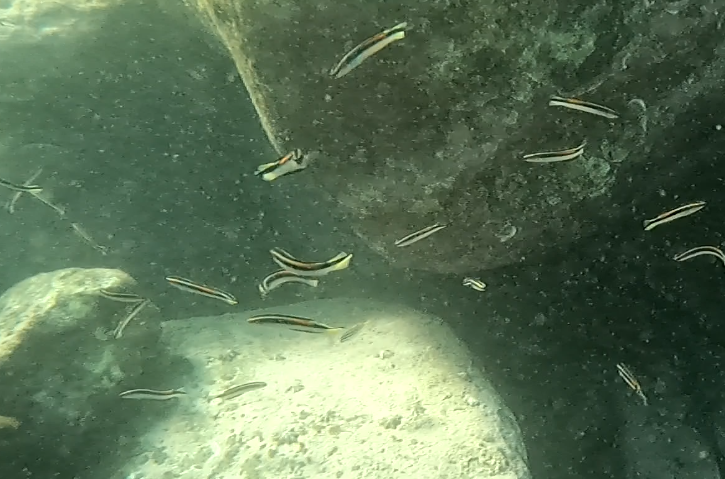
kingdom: Animalia
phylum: Chordata
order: Perciformes
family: Plesiopidae
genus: Trachinops
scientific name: Trachinops taeniatus
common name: Eastern hulafish
